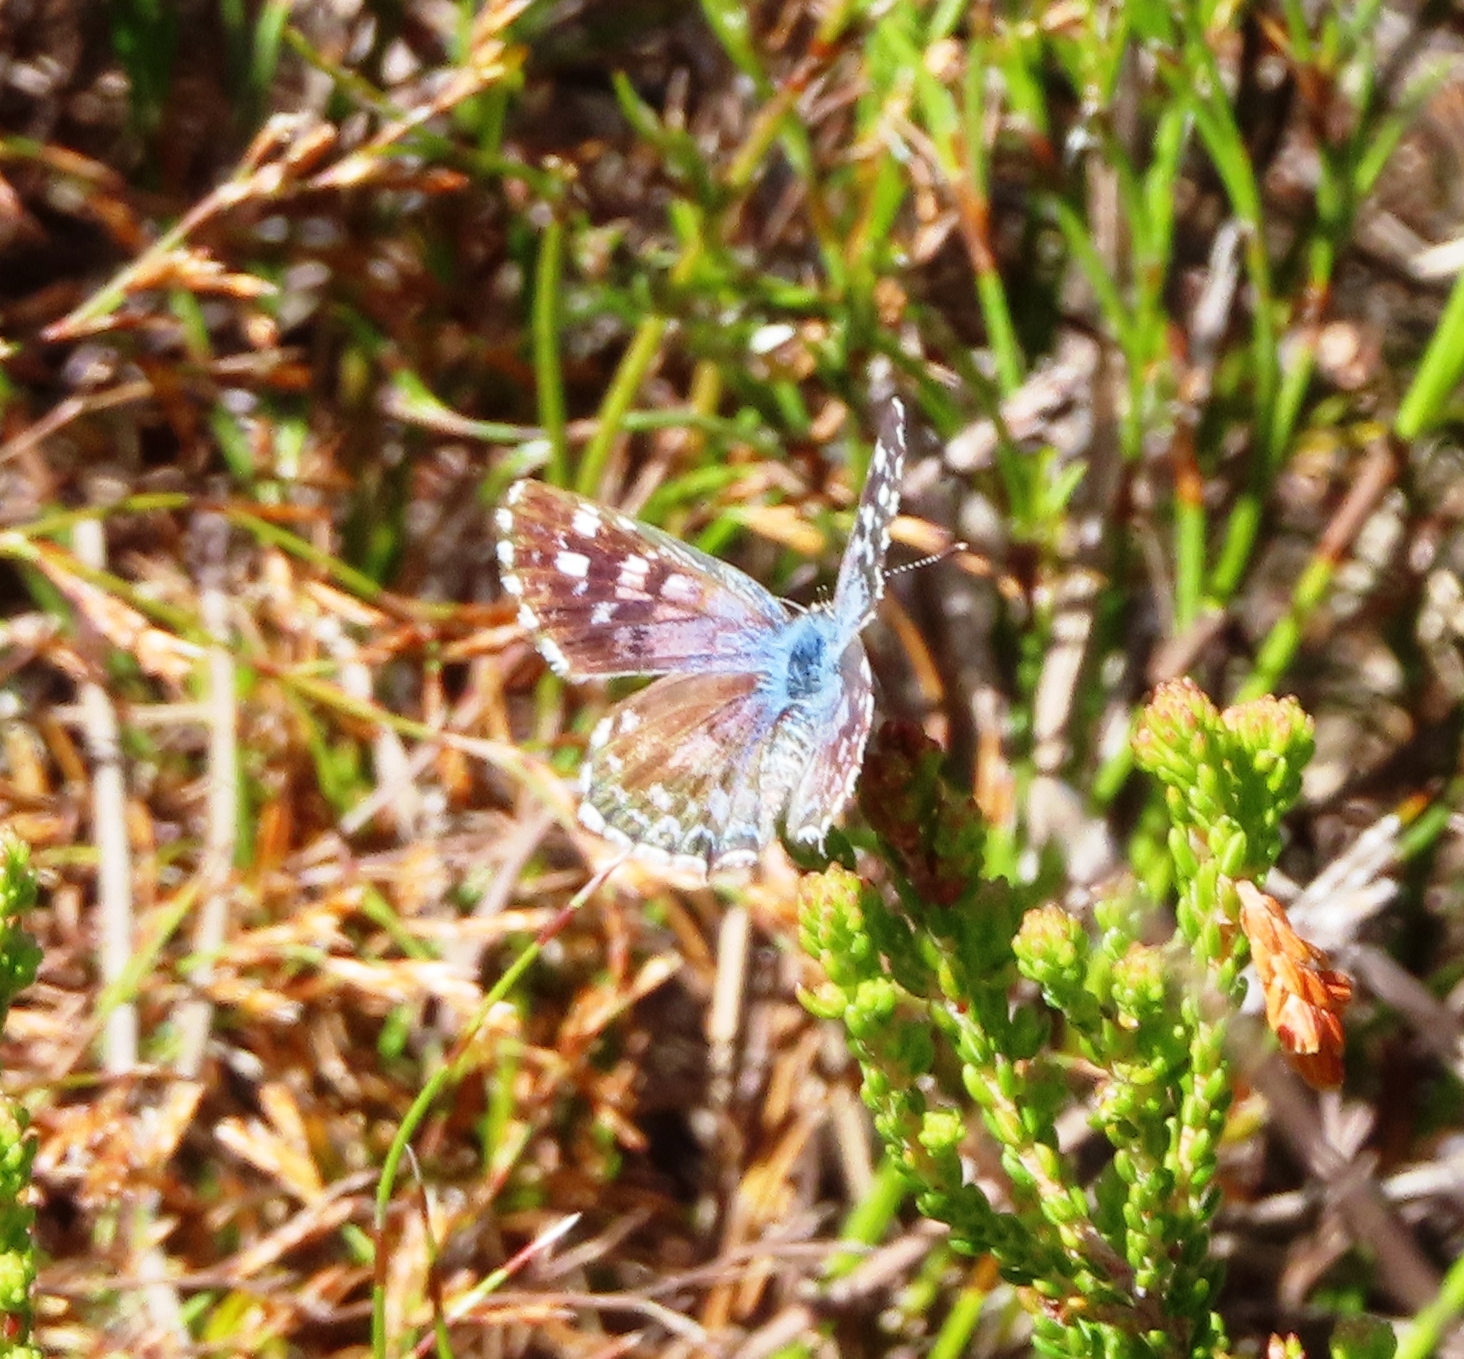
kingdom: Animalia
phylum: Arthropoda
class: Insecta
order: Lepidoptera
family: Lycaenidae
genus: Tarucus
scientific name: Tarucus thespis
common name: Vivid dotted blue
